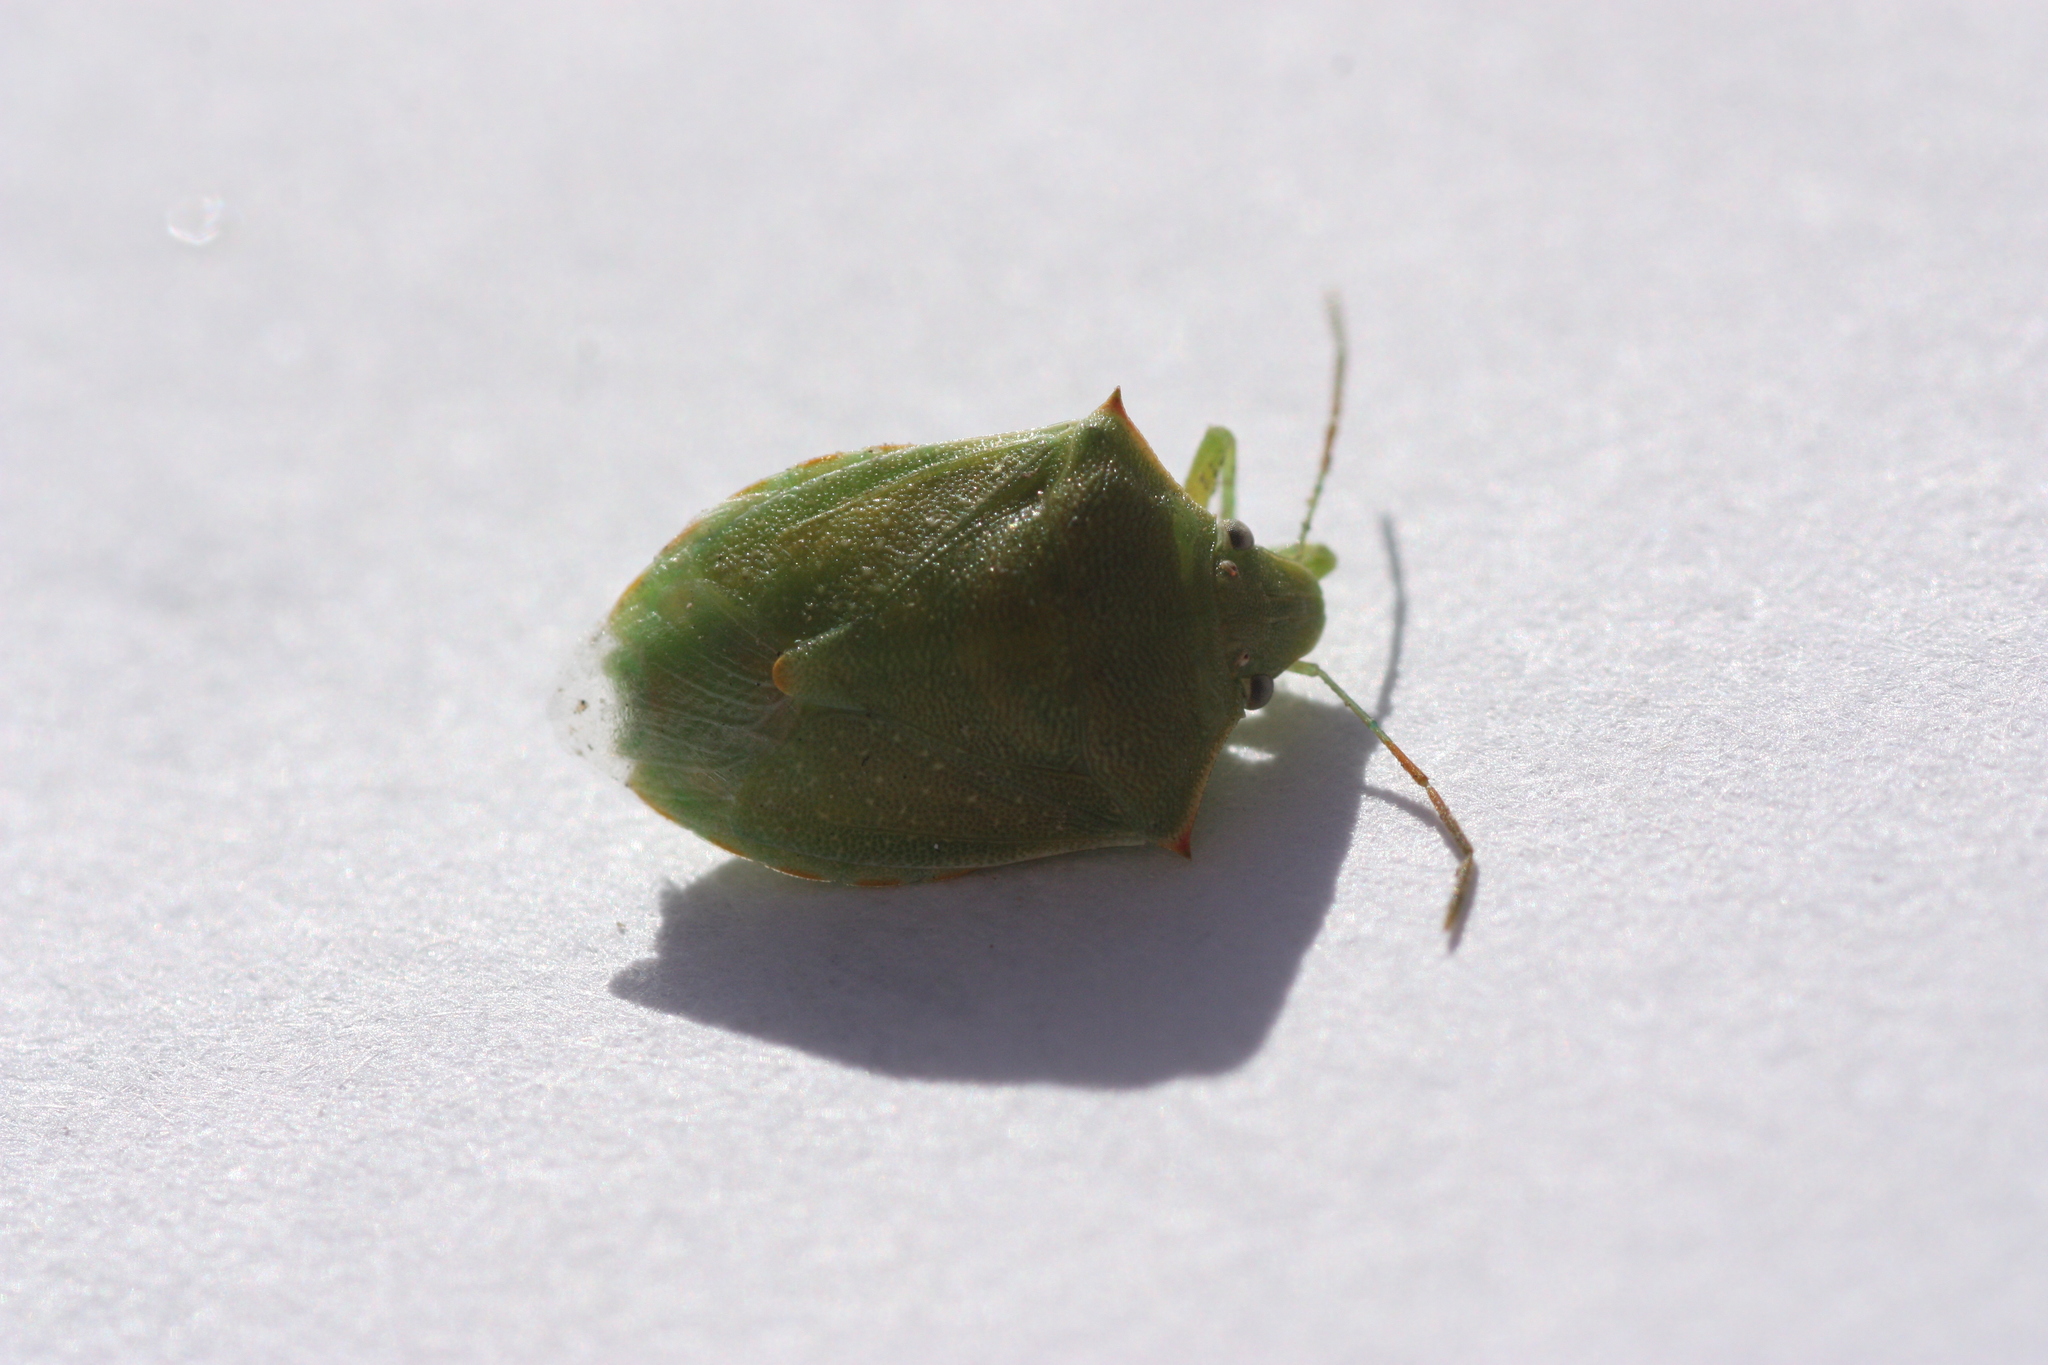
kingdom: Animalia
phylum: Arthropoda
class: Insecta
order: Hemiptera
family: Pentatomidae
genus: Thyanta
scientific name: Thyanta accerra
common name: Stink bug
